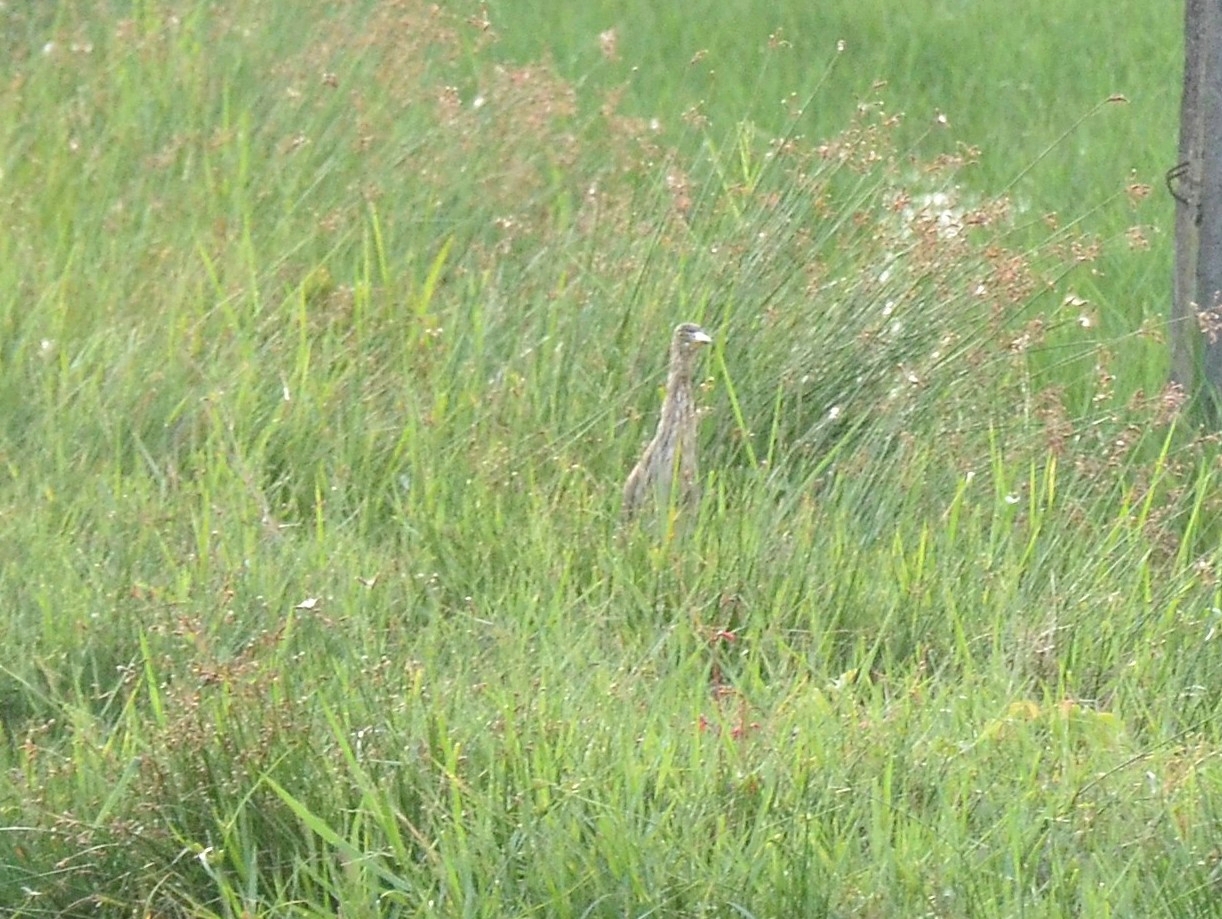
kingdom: Animalia
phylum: Chordata
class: Aves
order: Pelecaniformes
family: Ardeidae
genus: Ardeola
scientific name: Ardeola grayii
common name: Indian pond heron
